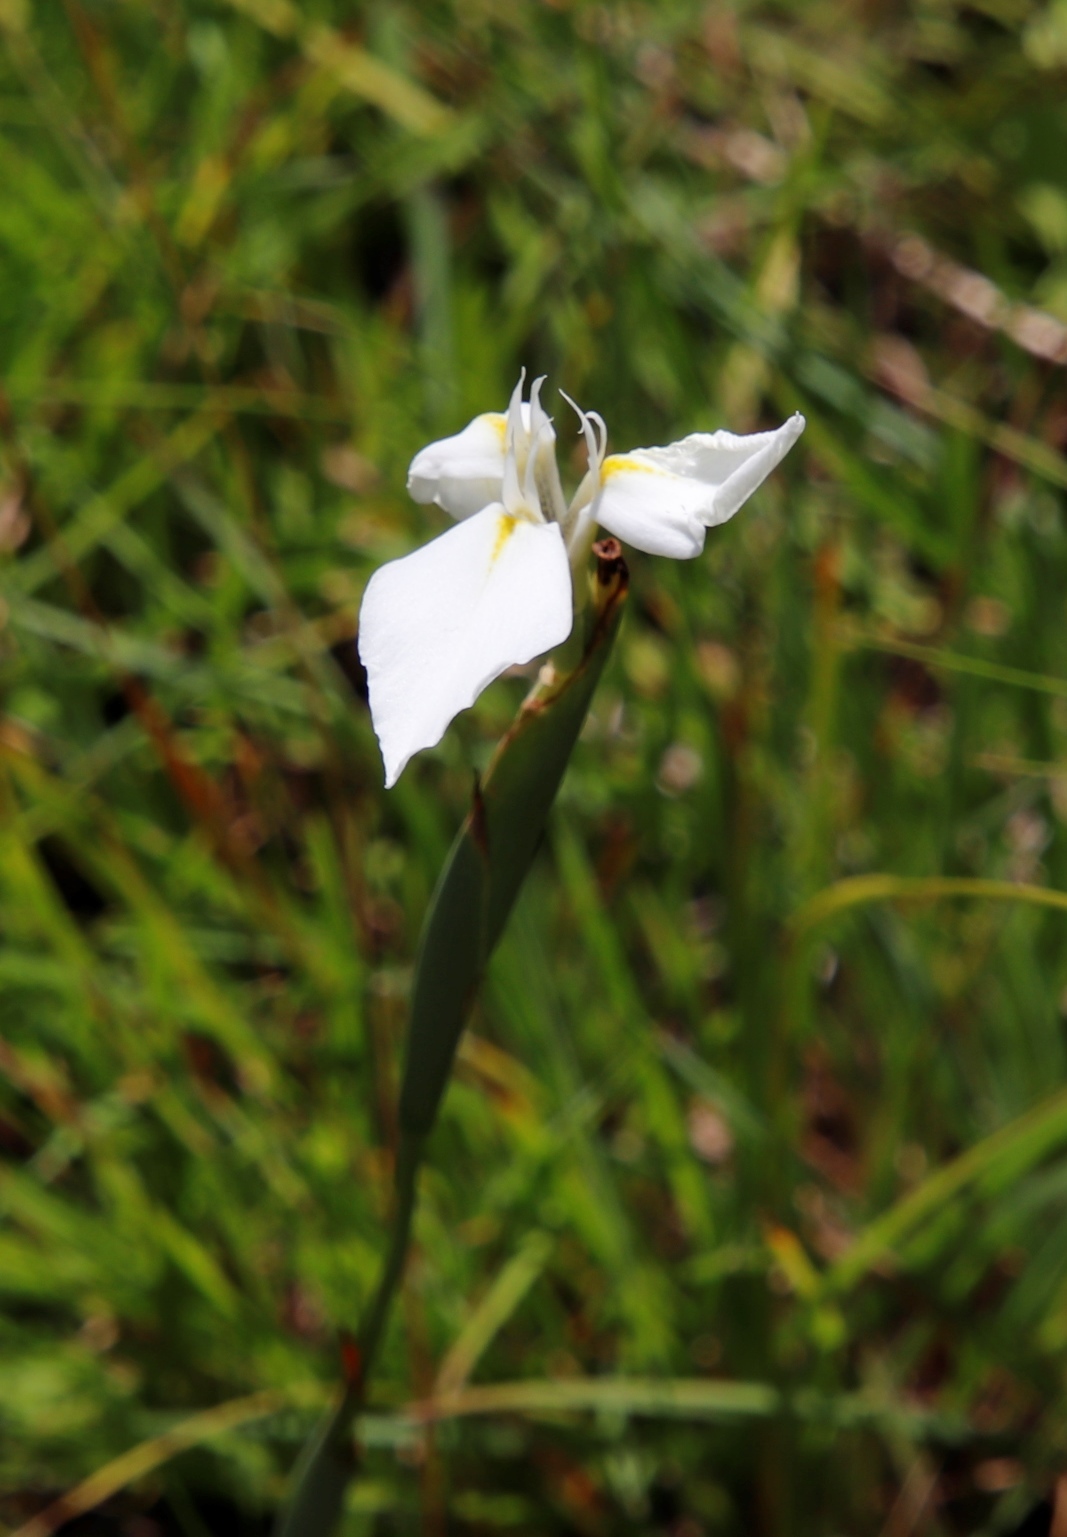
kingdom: Plantae
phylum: Tracheophyta
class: Liliopsida
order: Asparagales
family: Iridaceae
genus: Moraea
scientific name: Moraea albicuspa
